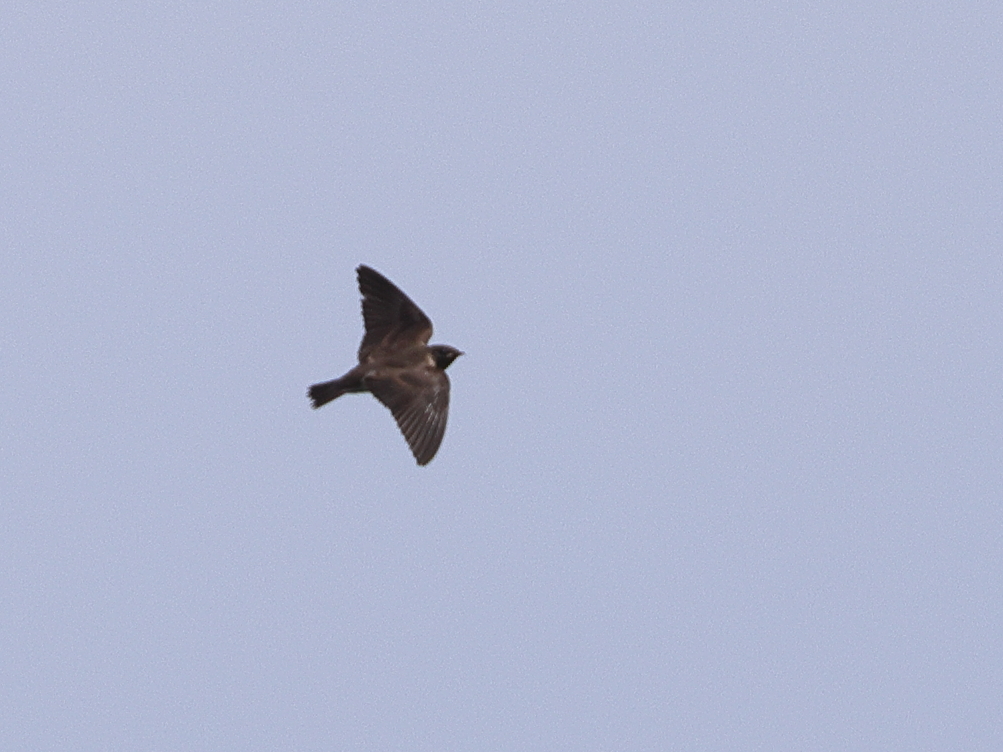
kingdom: Animalia
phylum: Chordata
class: Aves
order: Passeriformes
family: Hirundinidae
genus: Riparia
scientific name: Riparia riparia
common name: Sand martin
